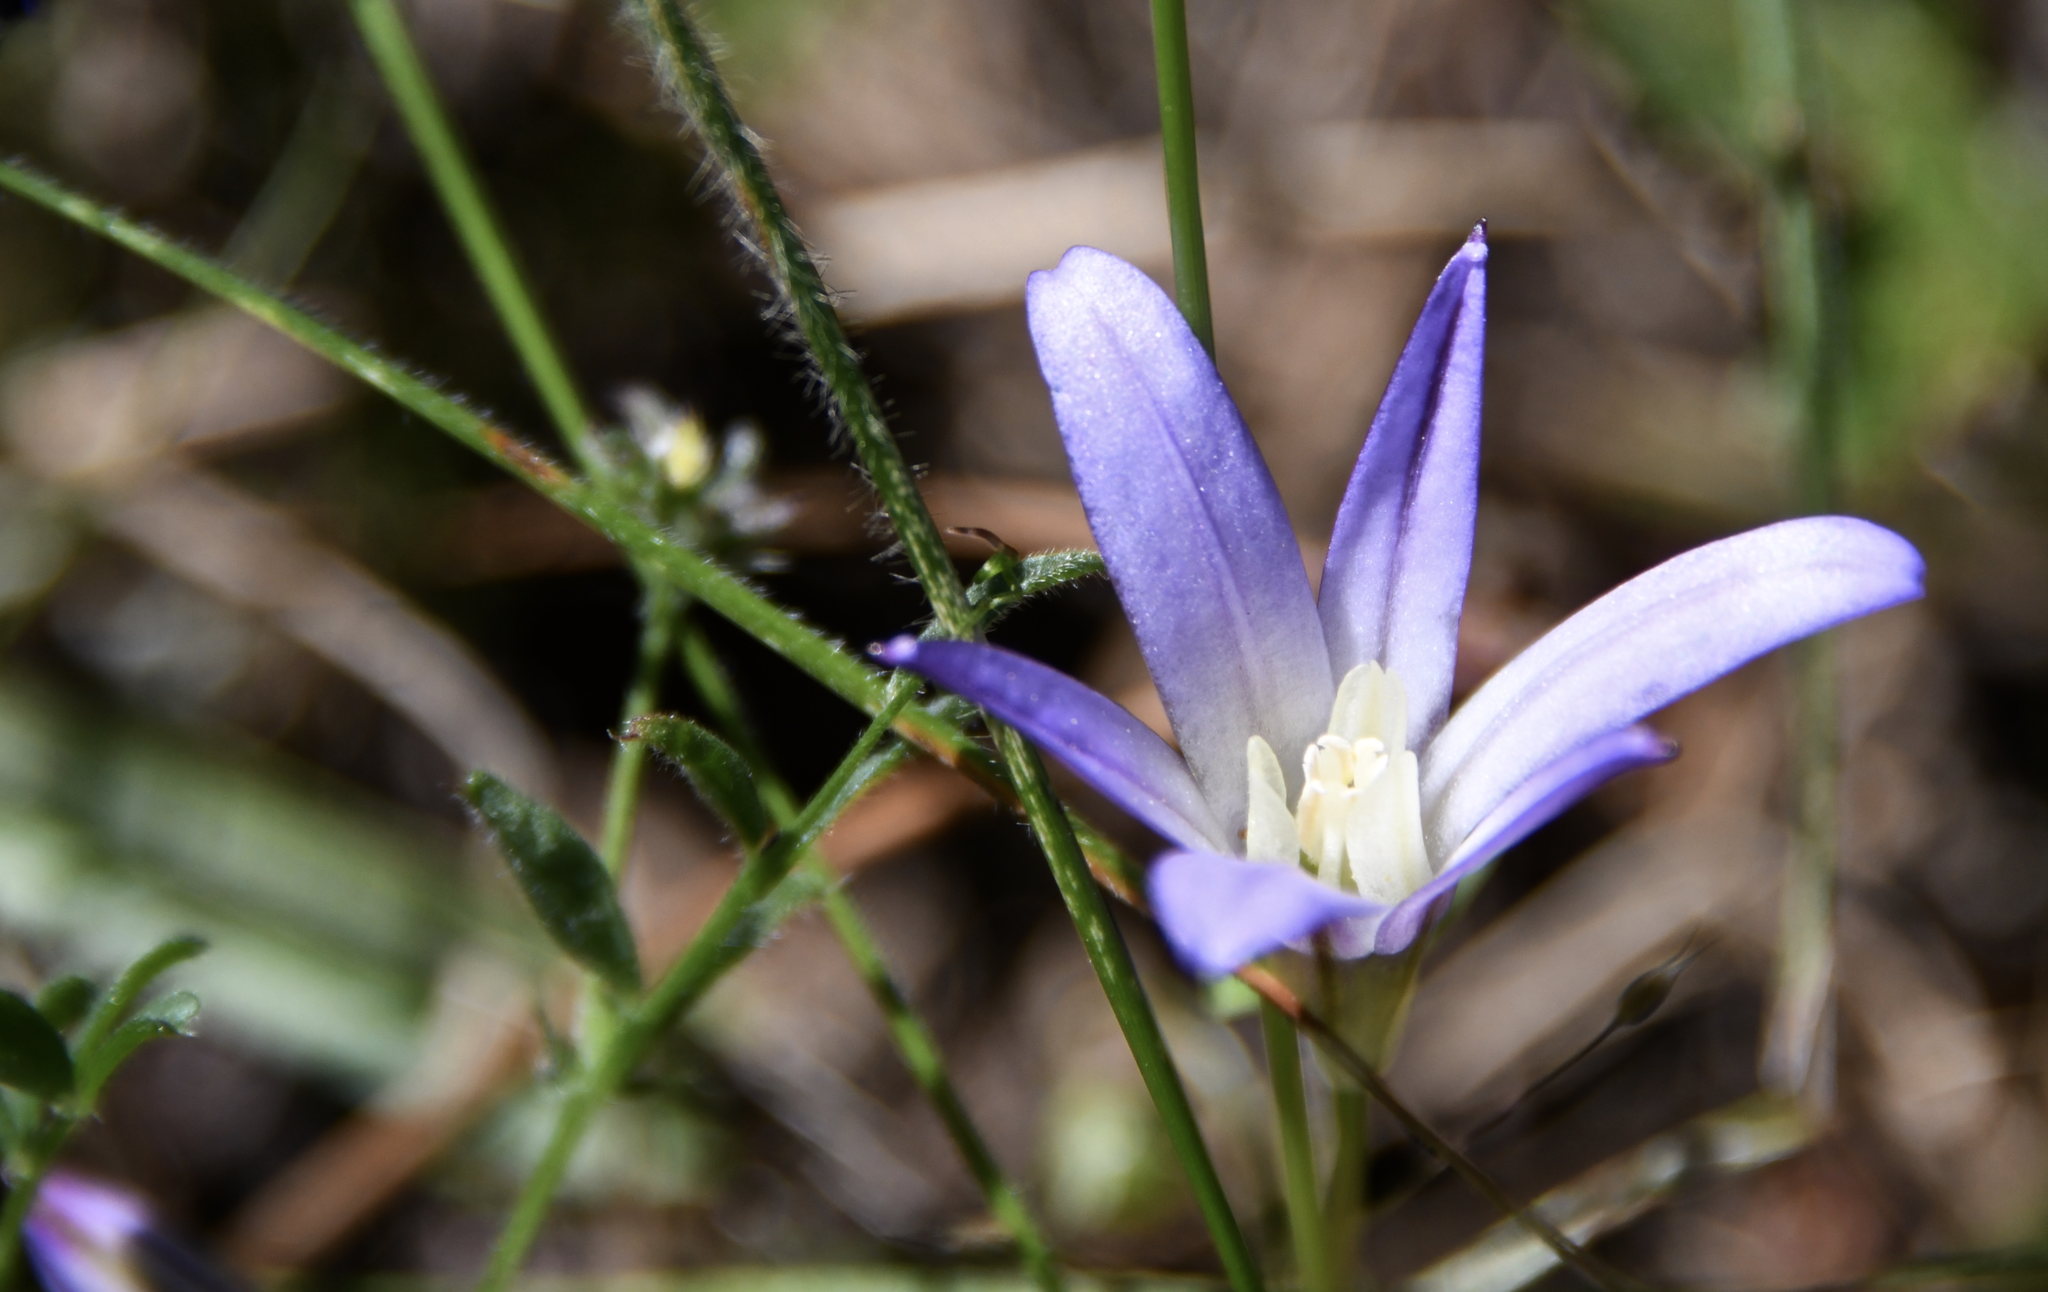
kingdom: Plantae
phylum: Tracheophyta
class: Liliopsida
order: Asparagales
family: Asparagaceae
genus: Brodiaea
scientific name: Brodiaea terrestris
